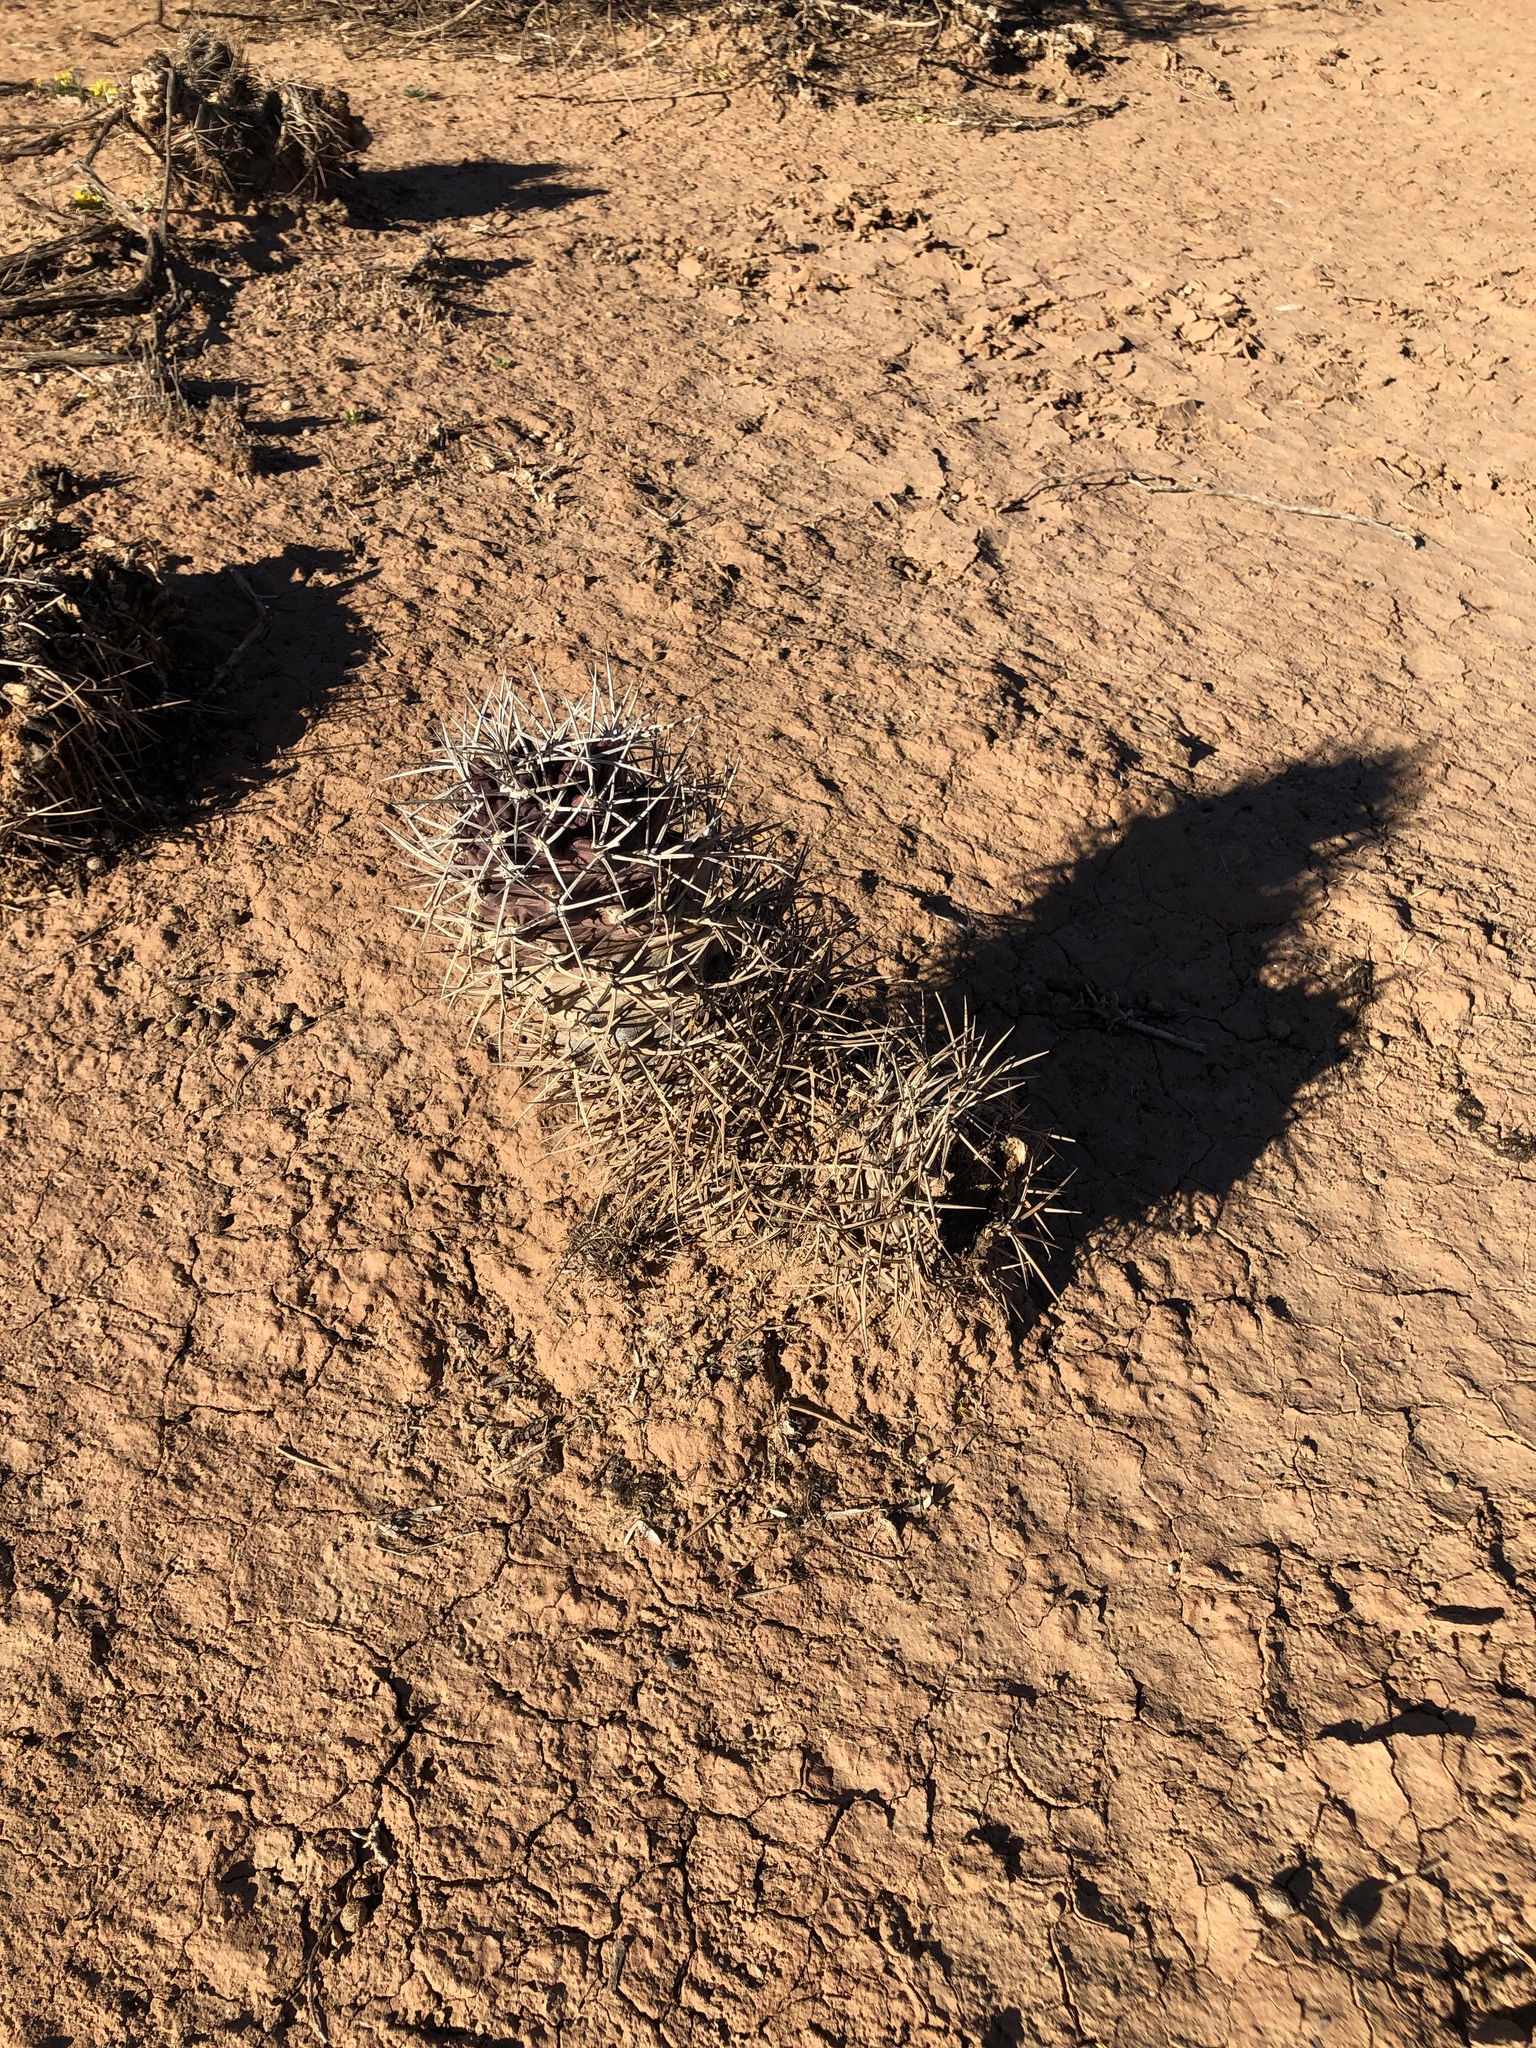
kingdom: Plantae
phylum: Tracheophyta
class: Magnoliopsida
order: Caryophyllales
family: Cactaceae
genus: Echinocereus
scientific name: Echinocereus triglochidiatus
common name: Claretcup hedgehog
